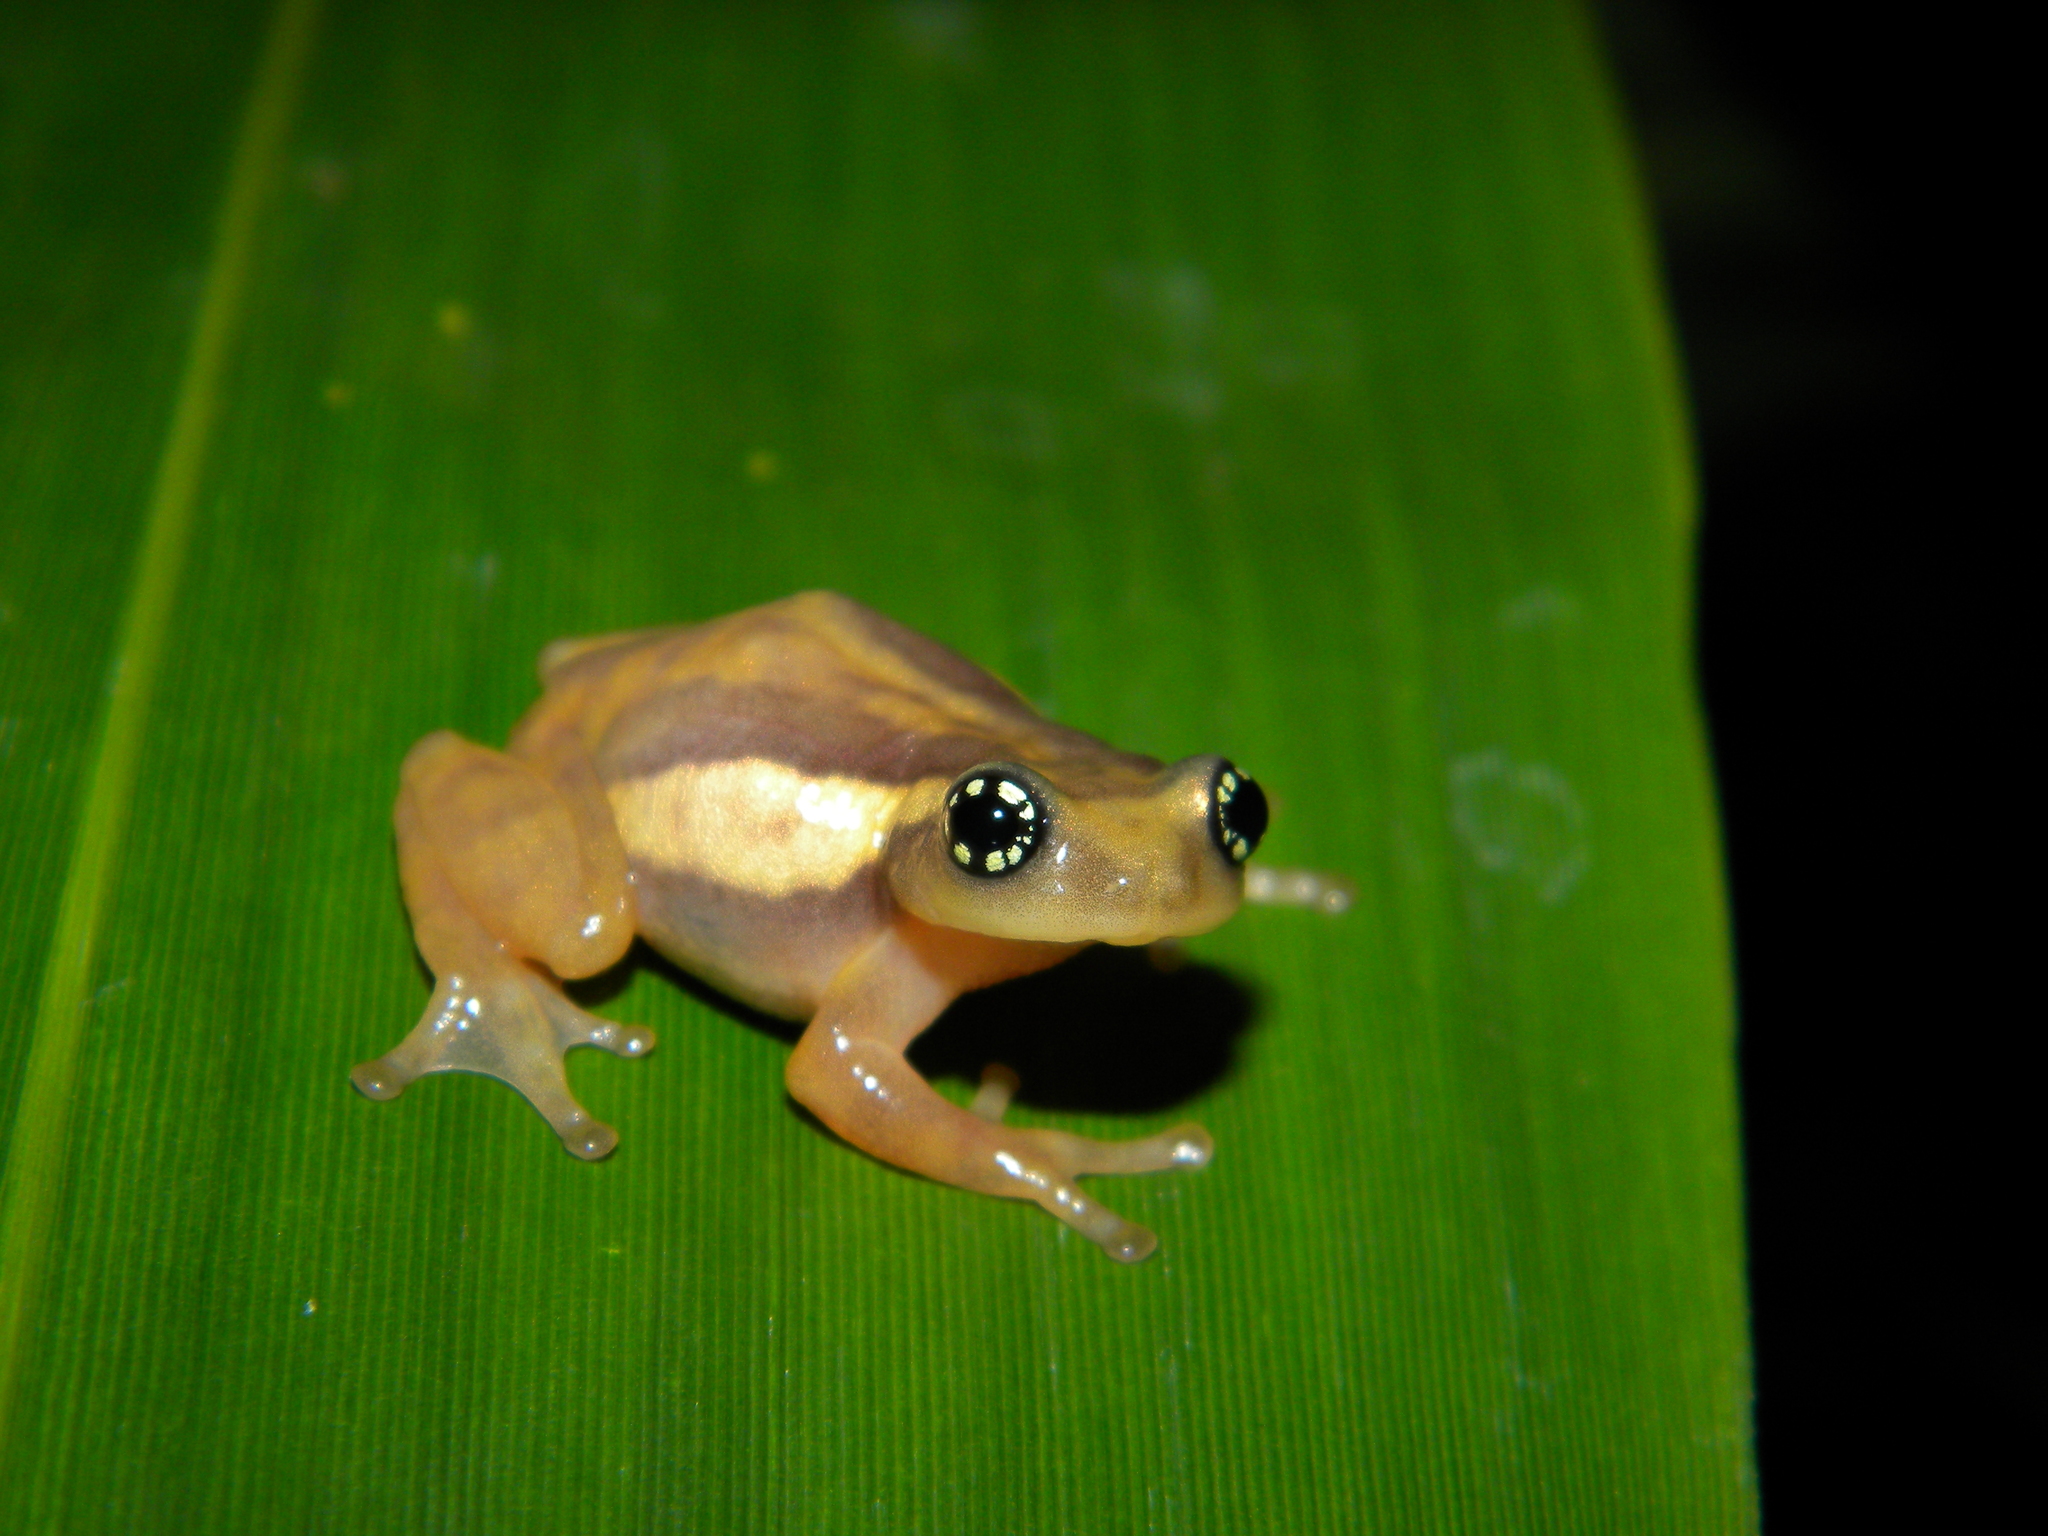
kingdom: Animalia
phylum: Chordata
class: Amphibia
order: Anura
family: Rhacophoridae
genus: Raorchestes
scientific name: Raorchestes ochlandrae
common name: Ochlandrae reed frog
